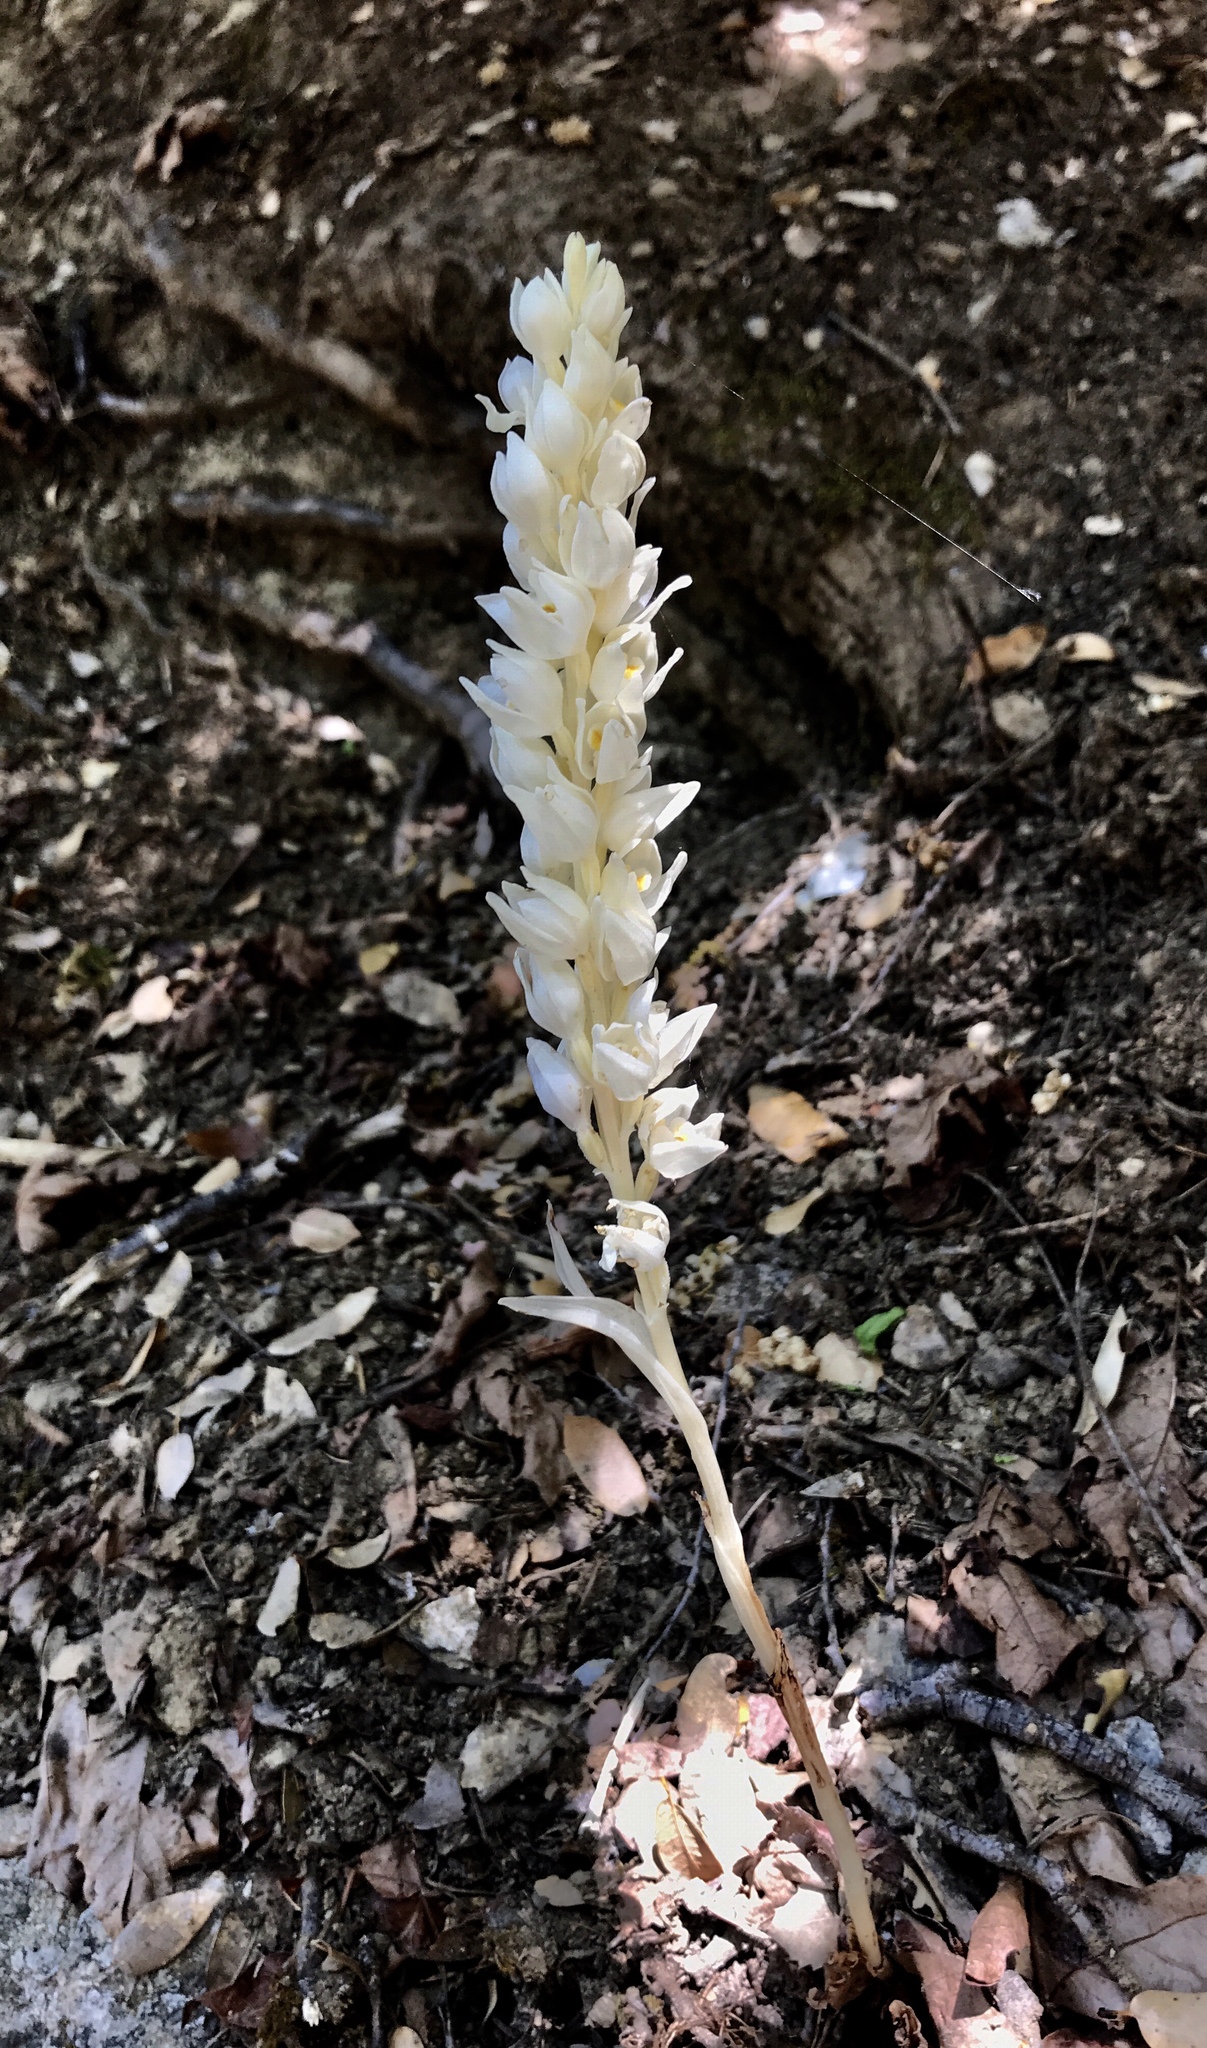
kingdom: Plantae
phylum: Tracheophyta
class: Liliopsida
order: Asparagales
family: Orchidaceae
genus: Cephalanthera
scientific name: Cephalanthera austiniae
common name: Phantom orchid
